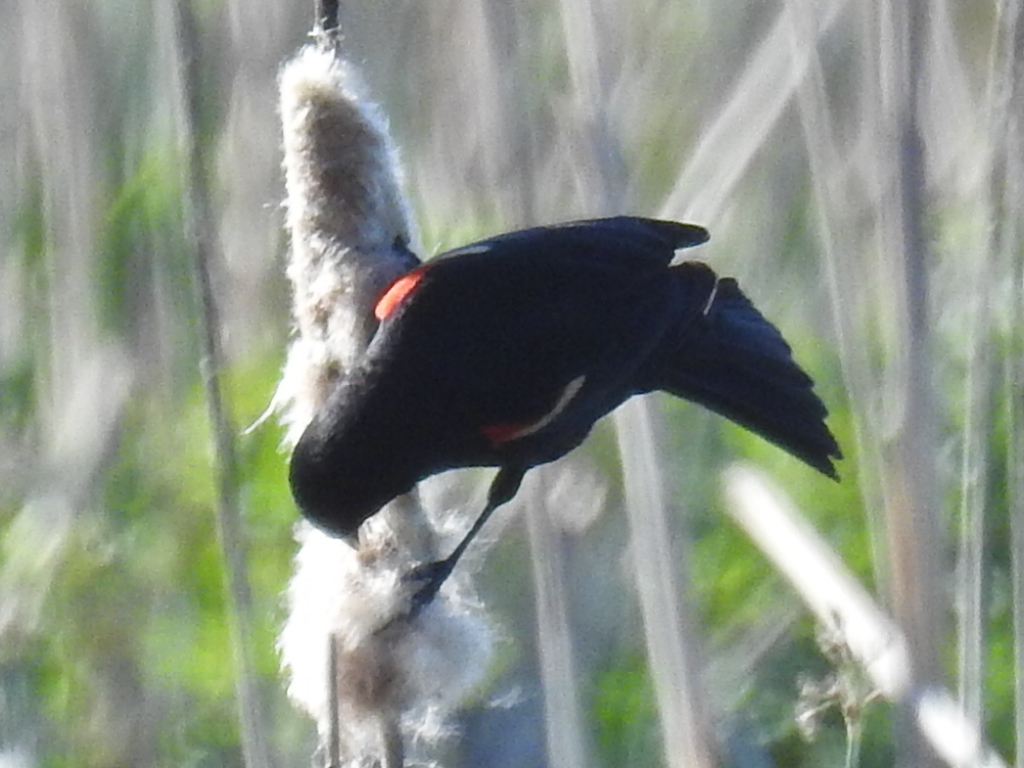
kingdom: Animalia
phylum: Chordata
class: Aves
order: Passeriformes
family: Icteridae
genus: Agelaius
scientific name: Agelaius phoeniceus
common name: Red-winged blackbird
